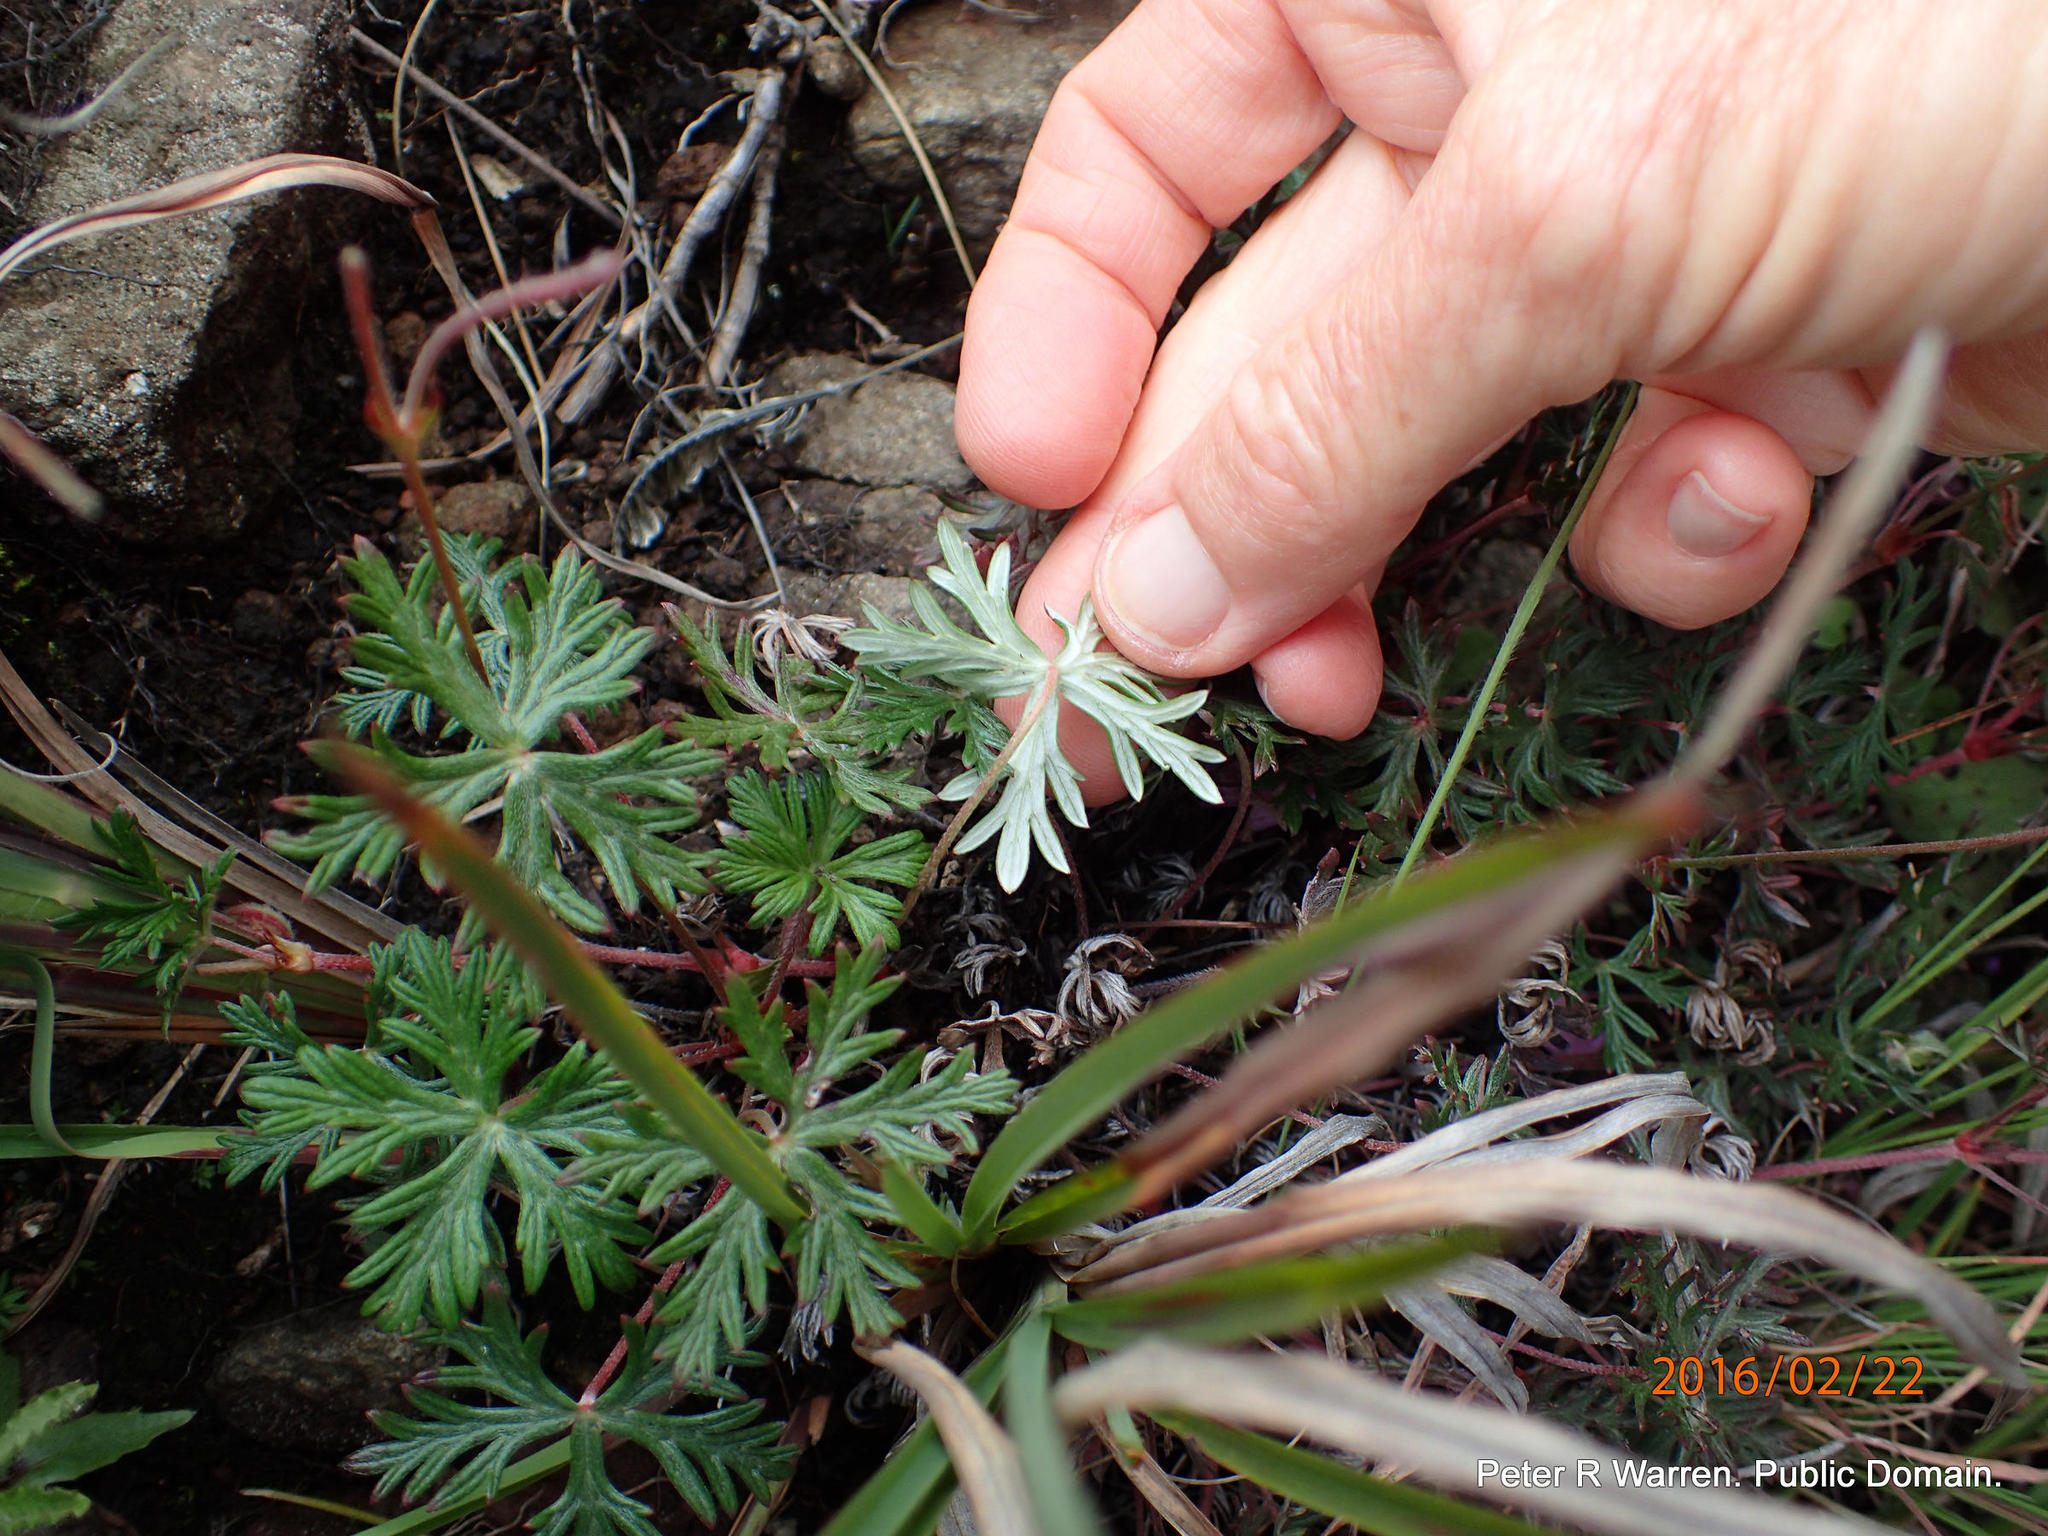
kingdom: Plantae
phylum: Tracheophyta
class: Magnoliopsida
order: Geraniales
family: Geraniaceae
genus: Geranium
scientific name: Geranium drakensbergense
